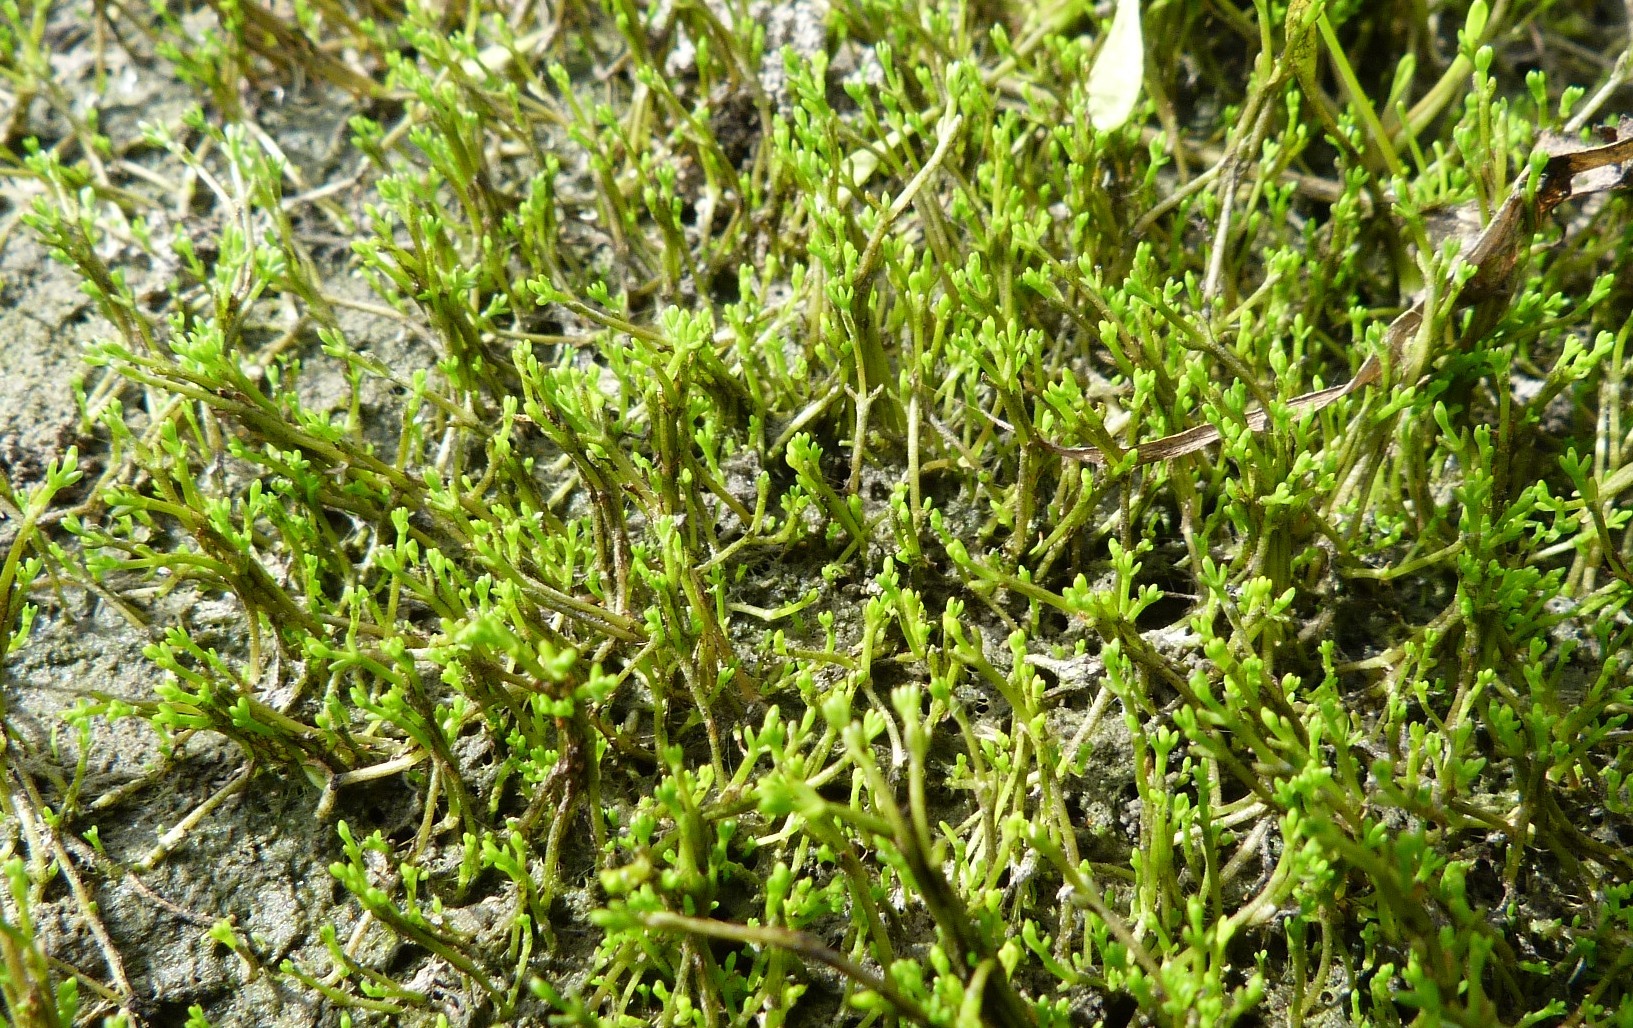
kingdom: Plantae
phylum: Tracheophyta
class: Magnoliopsida
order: Saxifragales
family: Crassulaceae
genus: Crassula
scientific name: Crassula sinclairii
